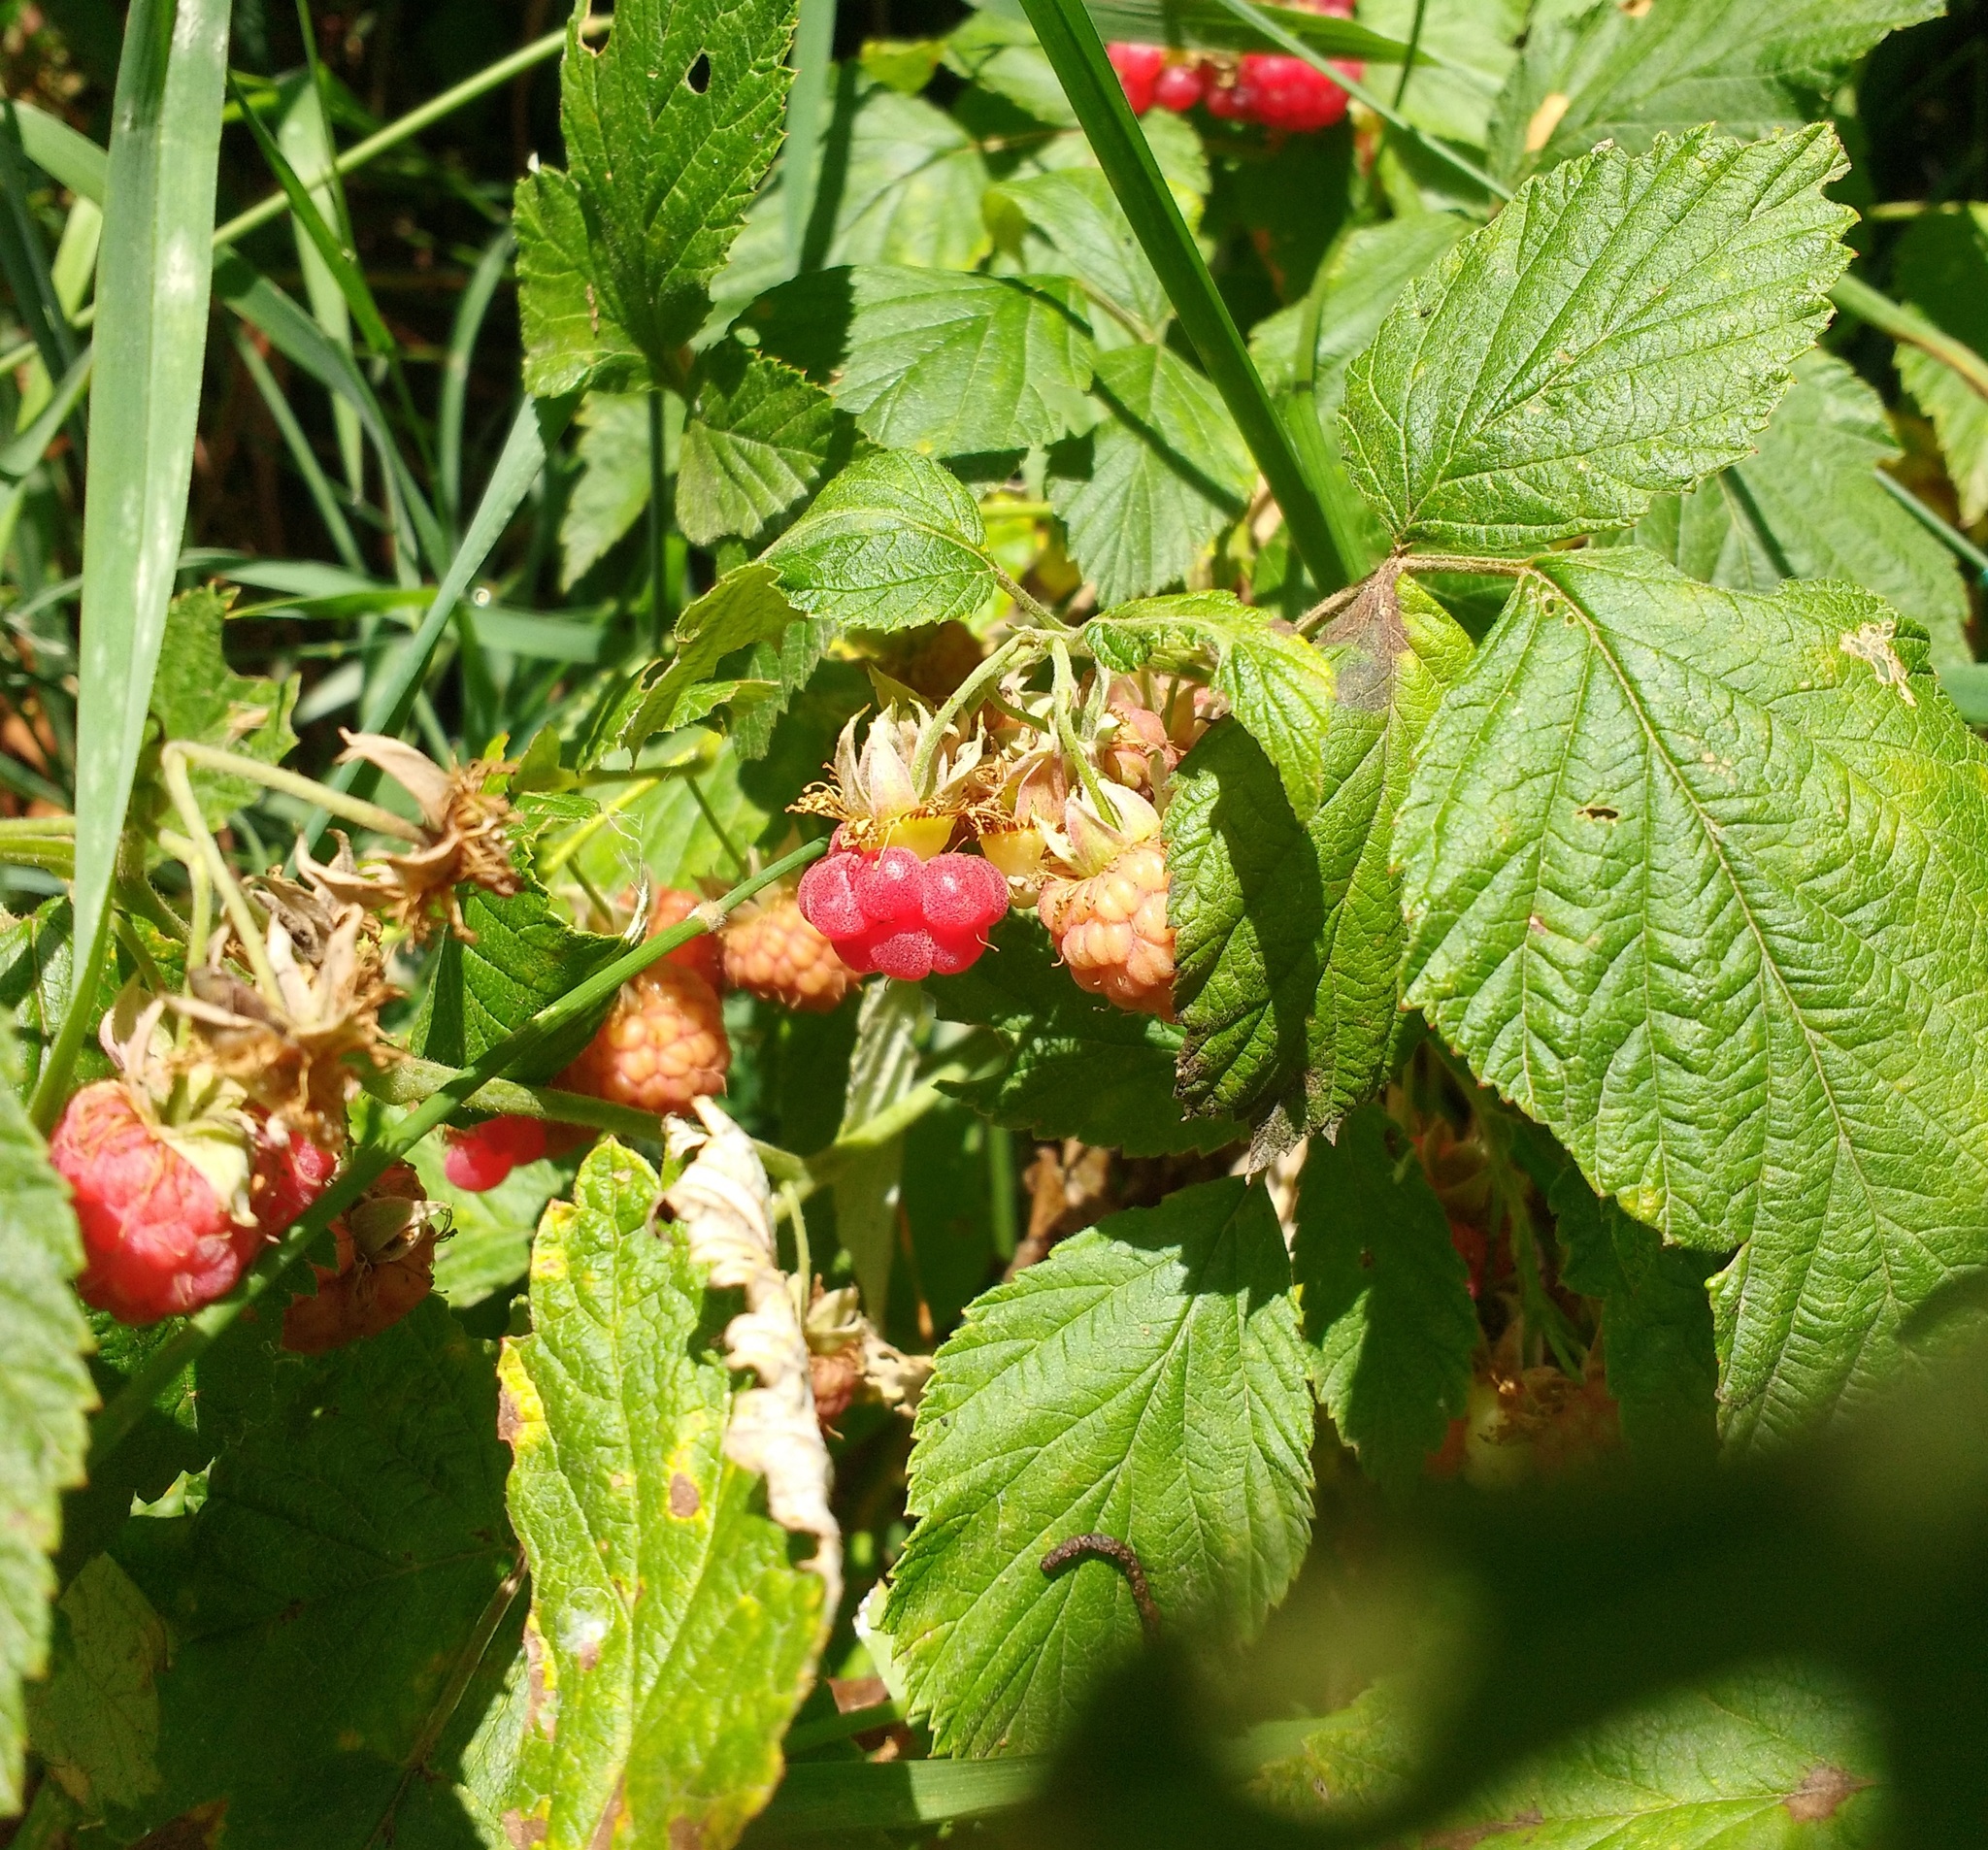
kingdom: Plantae
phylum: Tracheophyta
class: Magnoliopsida
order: Rosales
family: Rosaceae
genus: Rubus
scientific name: Rubus idaeus
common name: Raspberry
